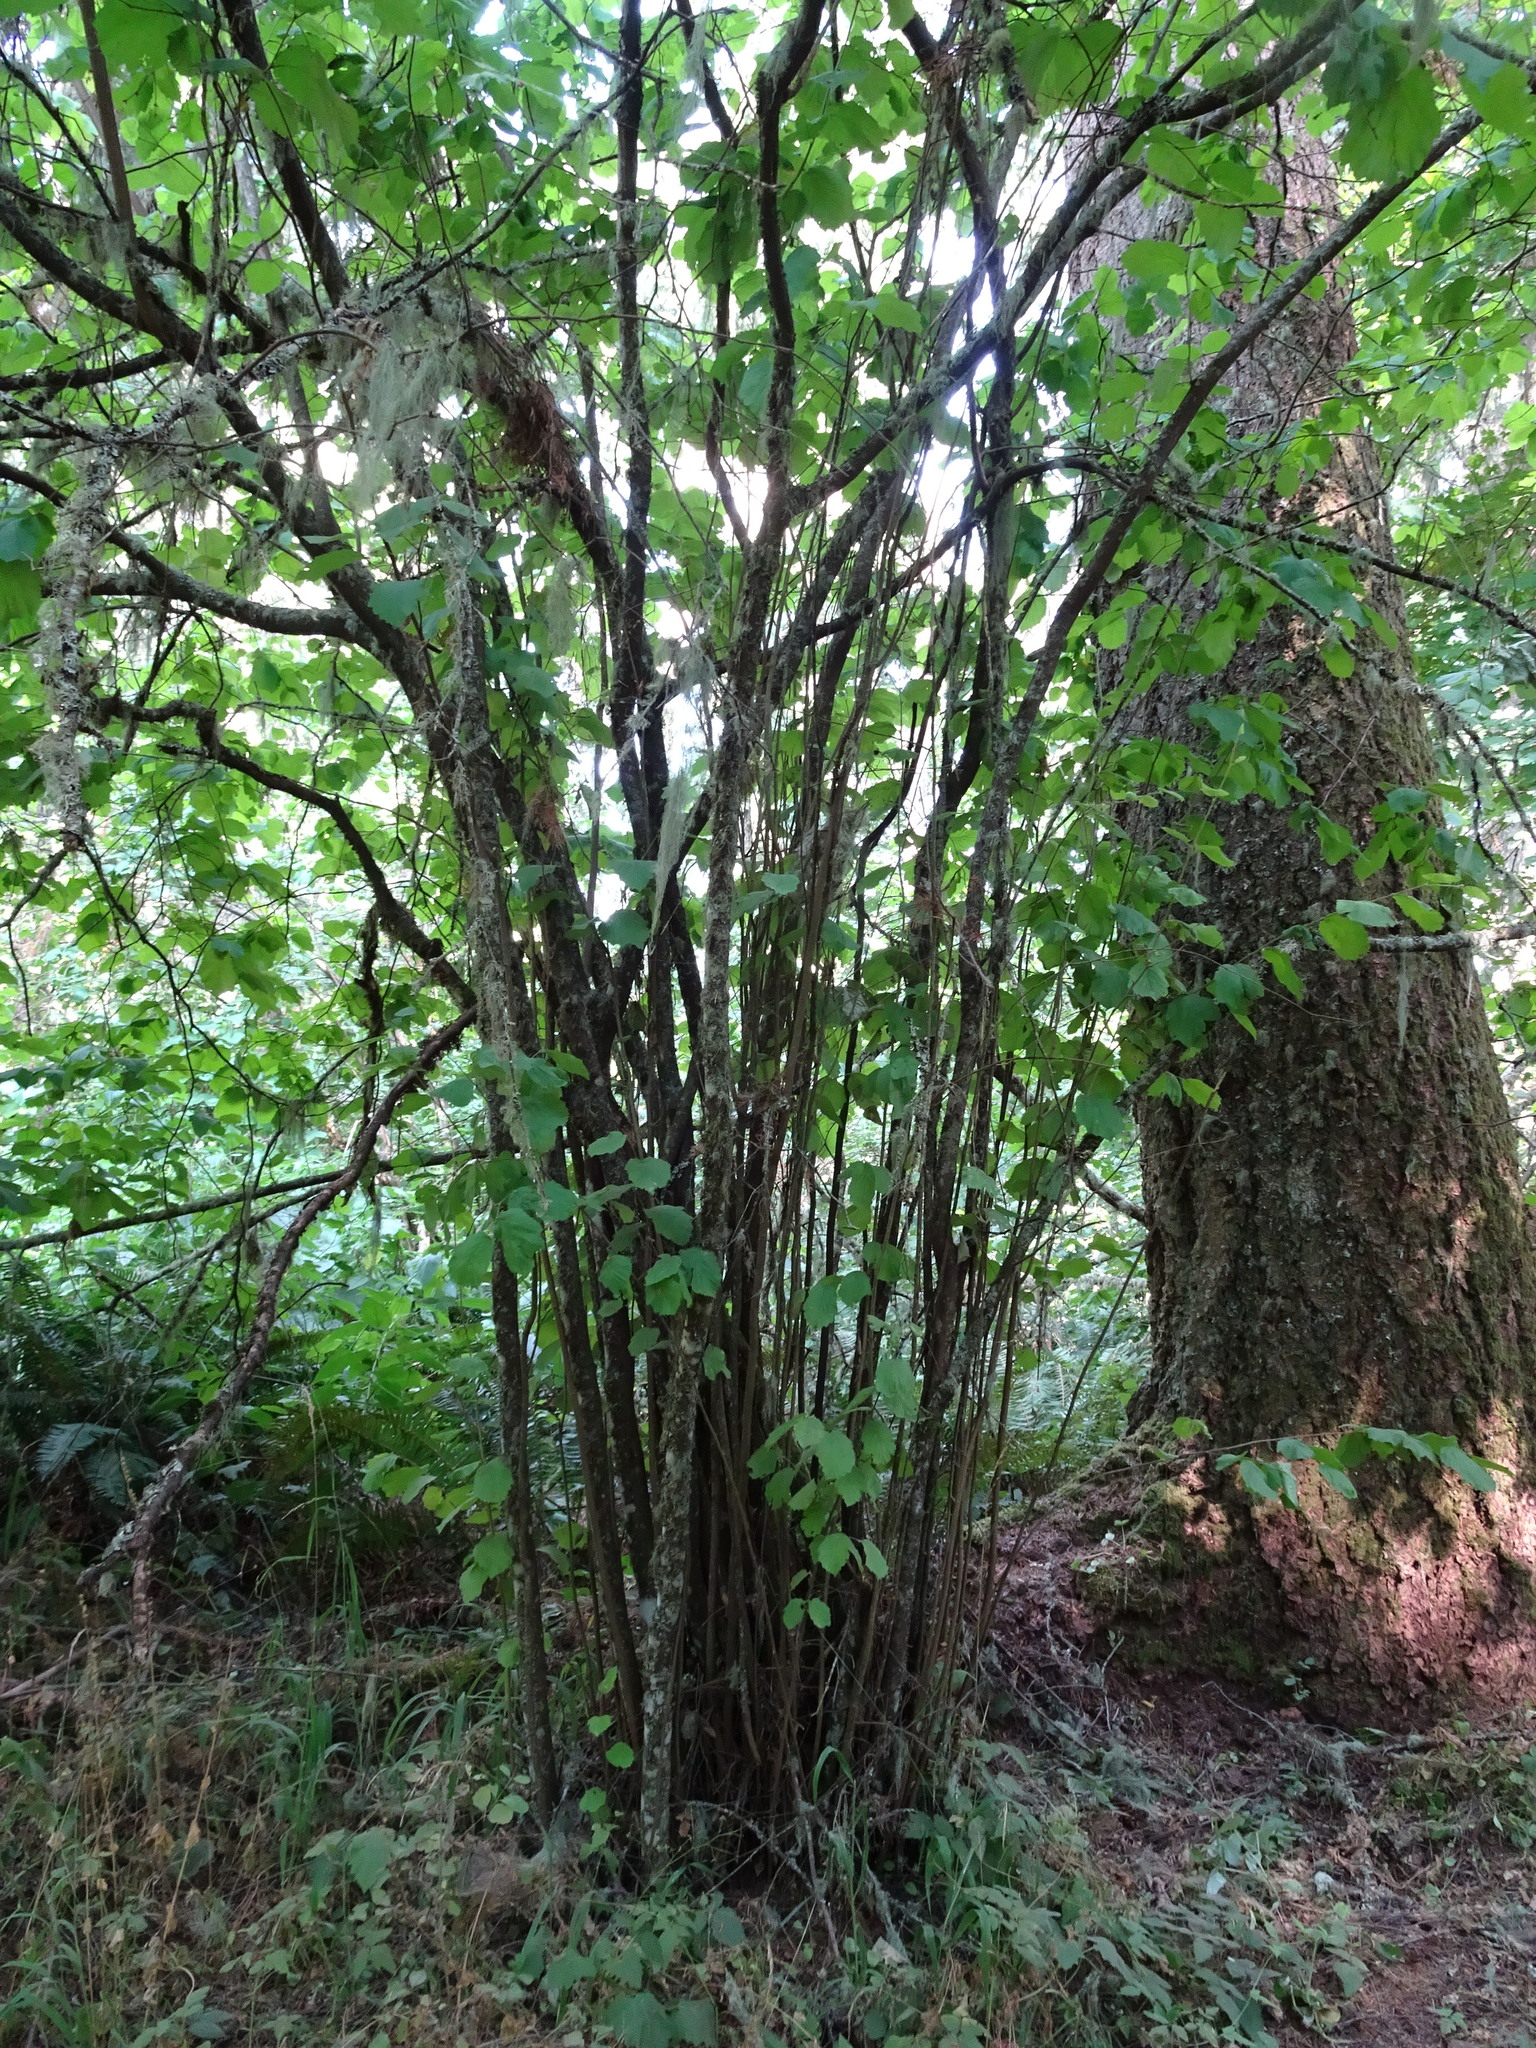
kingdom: Plantae
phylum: Tracheophyta
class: Magnoliopsida
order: Fagales
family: Betulaceae
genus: Corylus
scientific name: Corylus cornuta
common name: Beaked hazel
